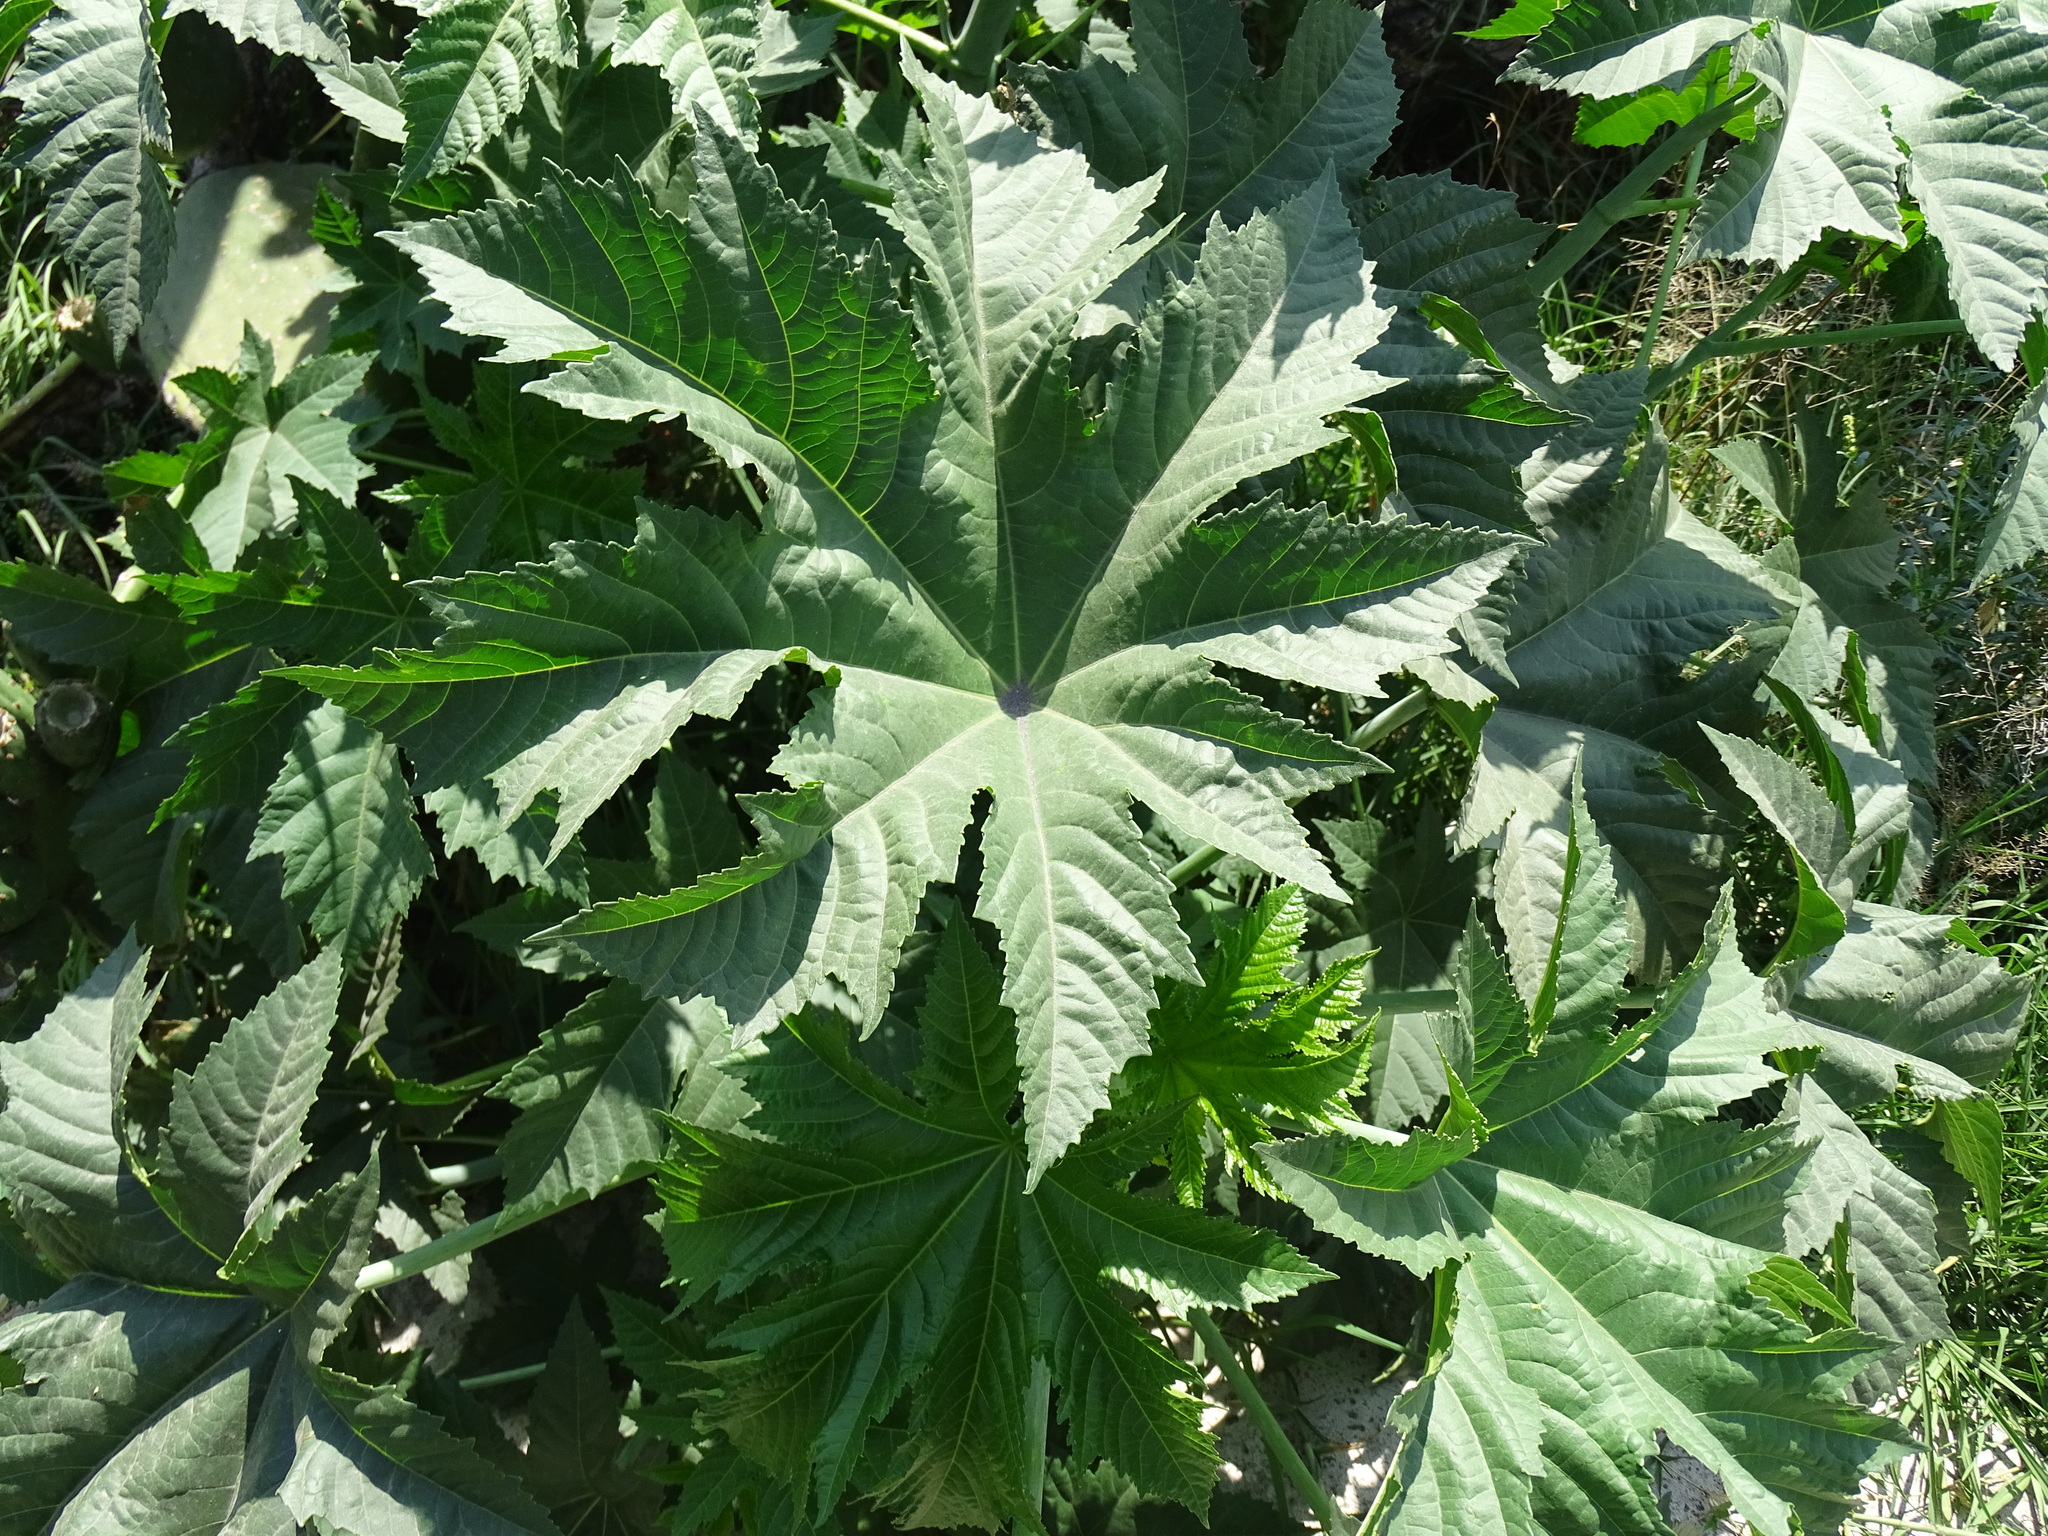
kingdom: Plantae
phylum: Tracheophyta
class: Magnoliopsida
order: Malpighiales
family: Euphorbiaceae
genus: Ricinus
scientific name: Ricinus communis
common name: Castor-oil-plant
